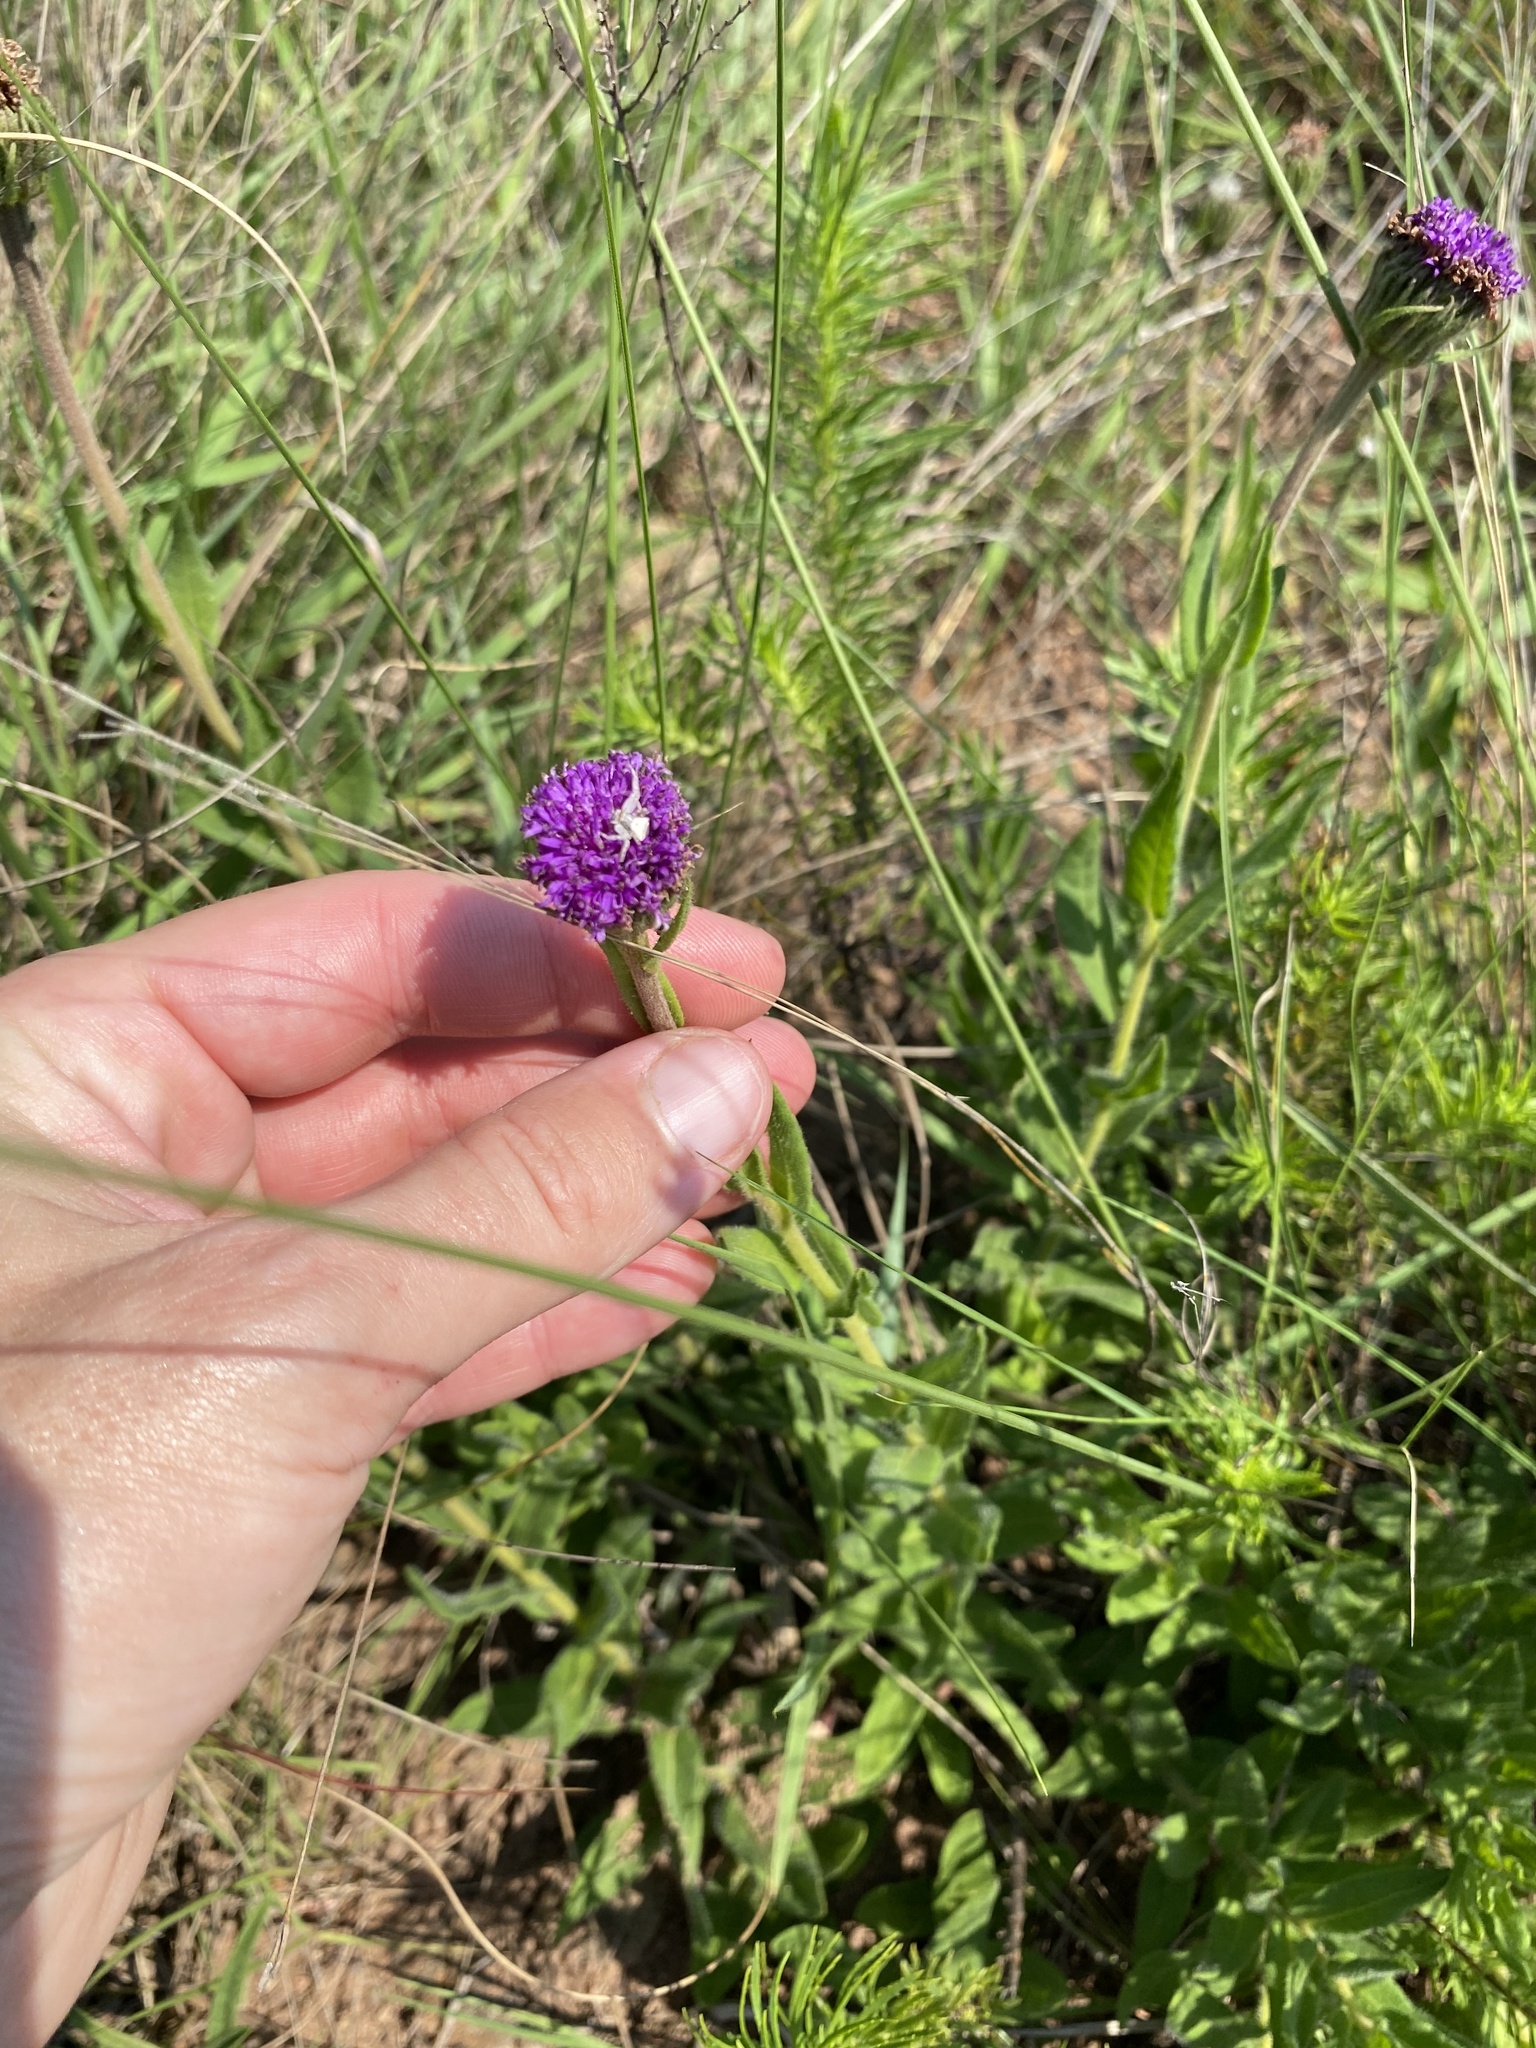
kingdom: Plantae
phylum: Tracheophyta
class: Magnoliopsida
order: Asterales
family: Asteraceae
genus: Pseudopegolettia
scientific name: Pseudopegolettia tenella
